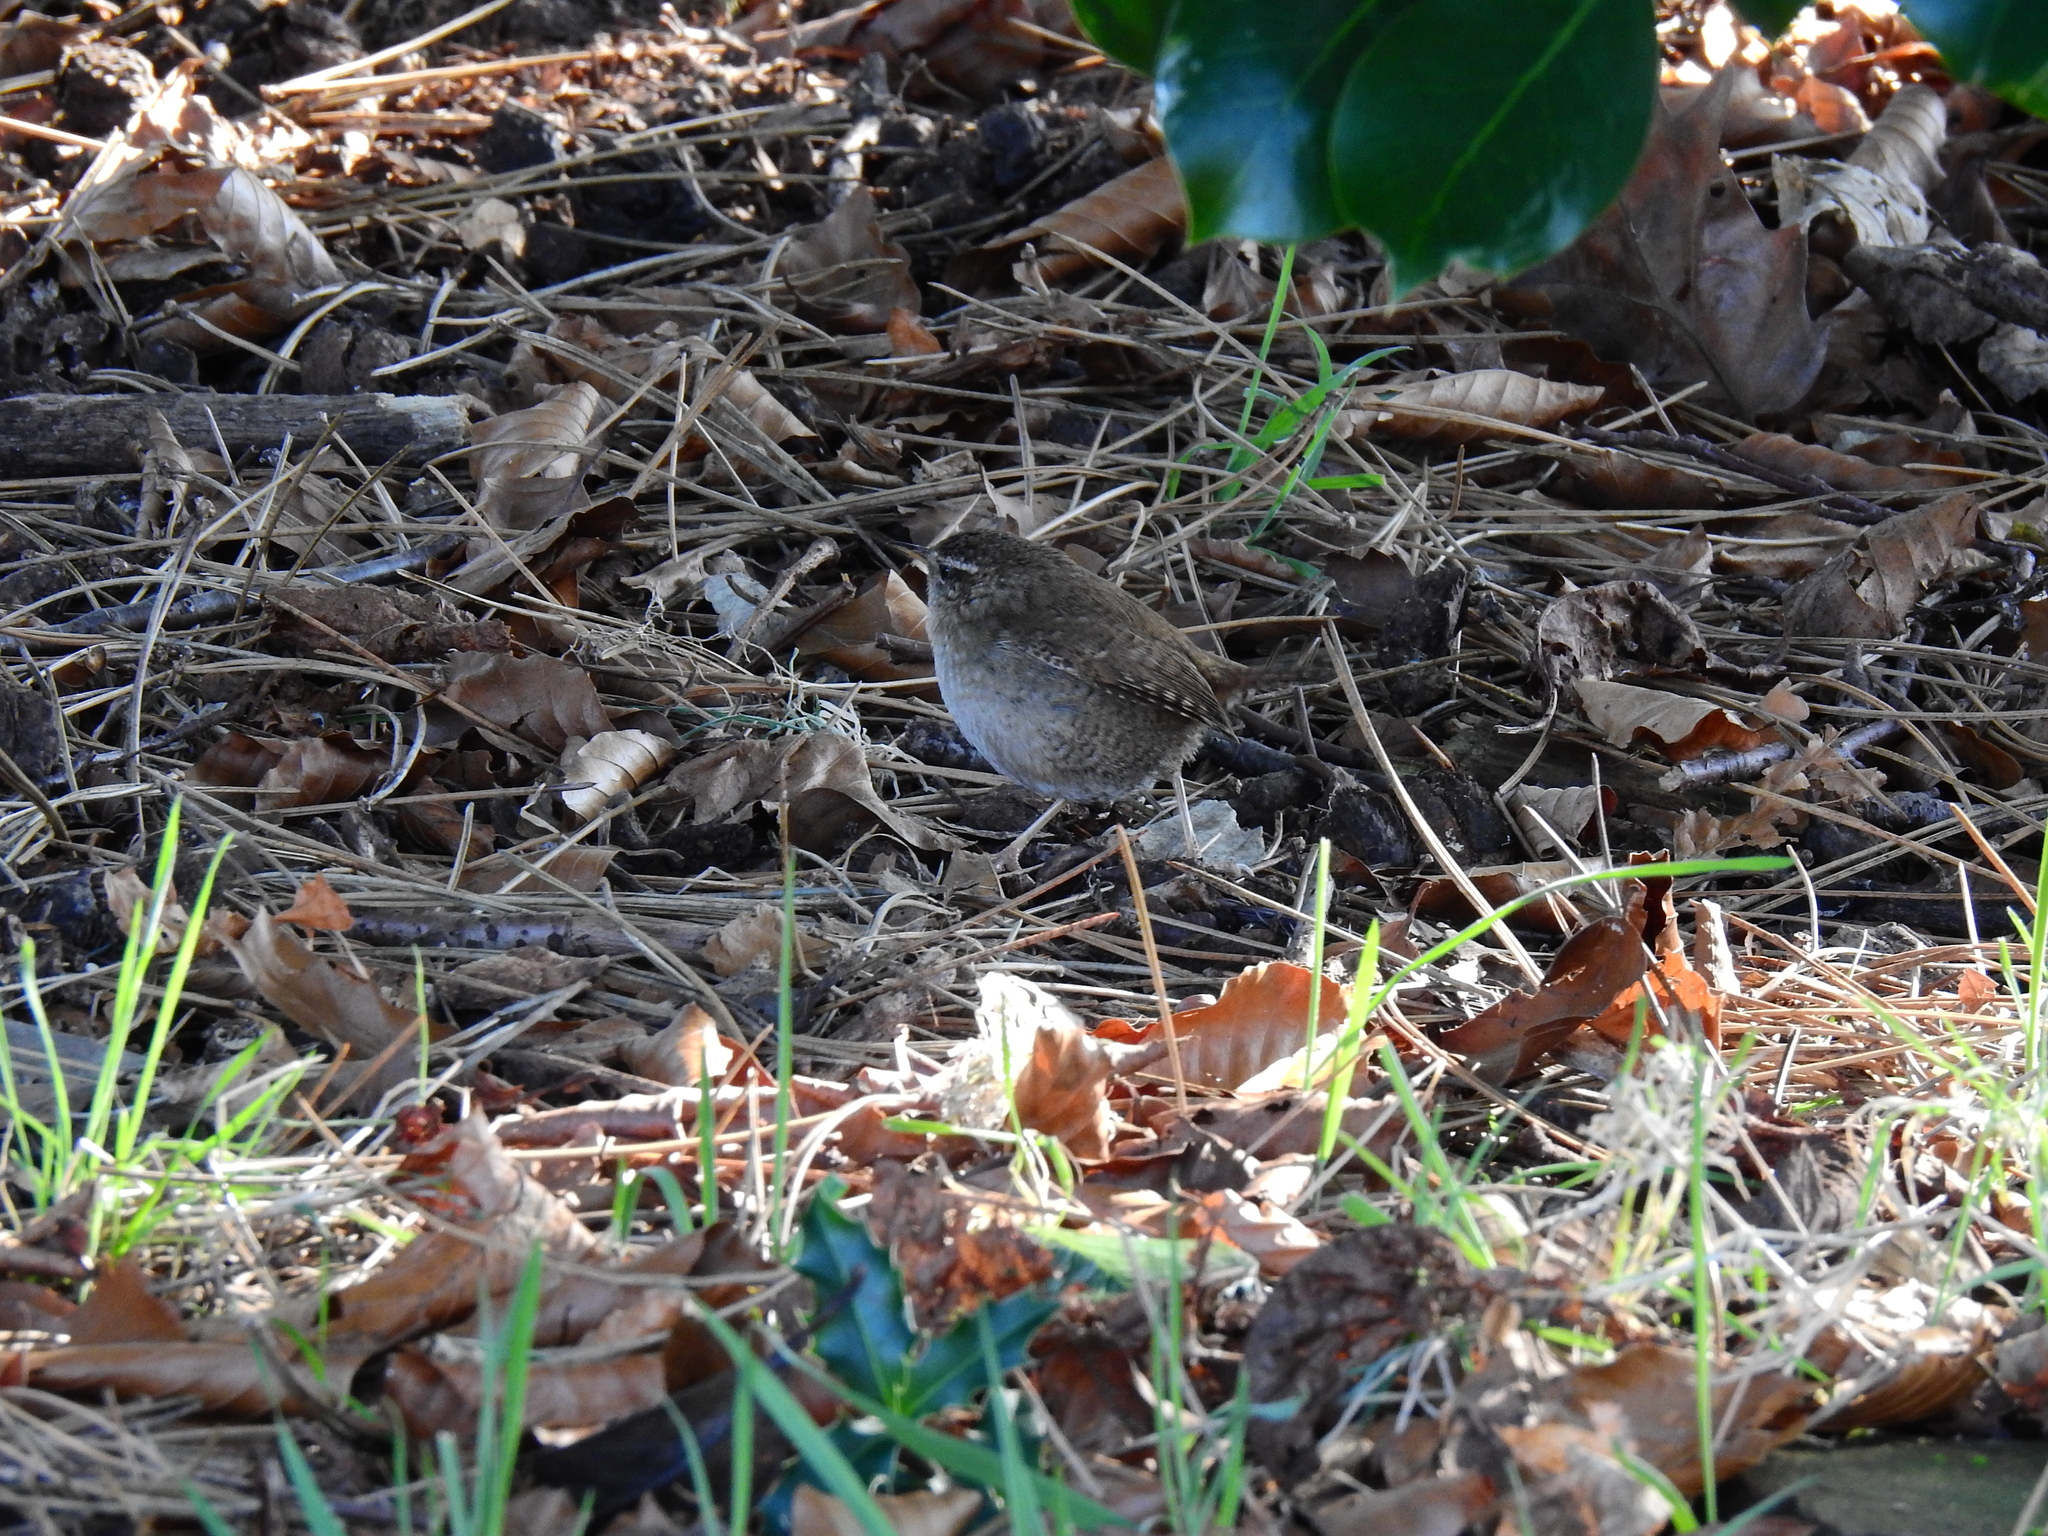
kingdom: Animalia
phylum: Chordata
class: Aves
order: Passeriformes
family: Troglodytidae
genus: Troglodytes
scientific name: Troglodytes troglodytes
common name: Eurasian wren
